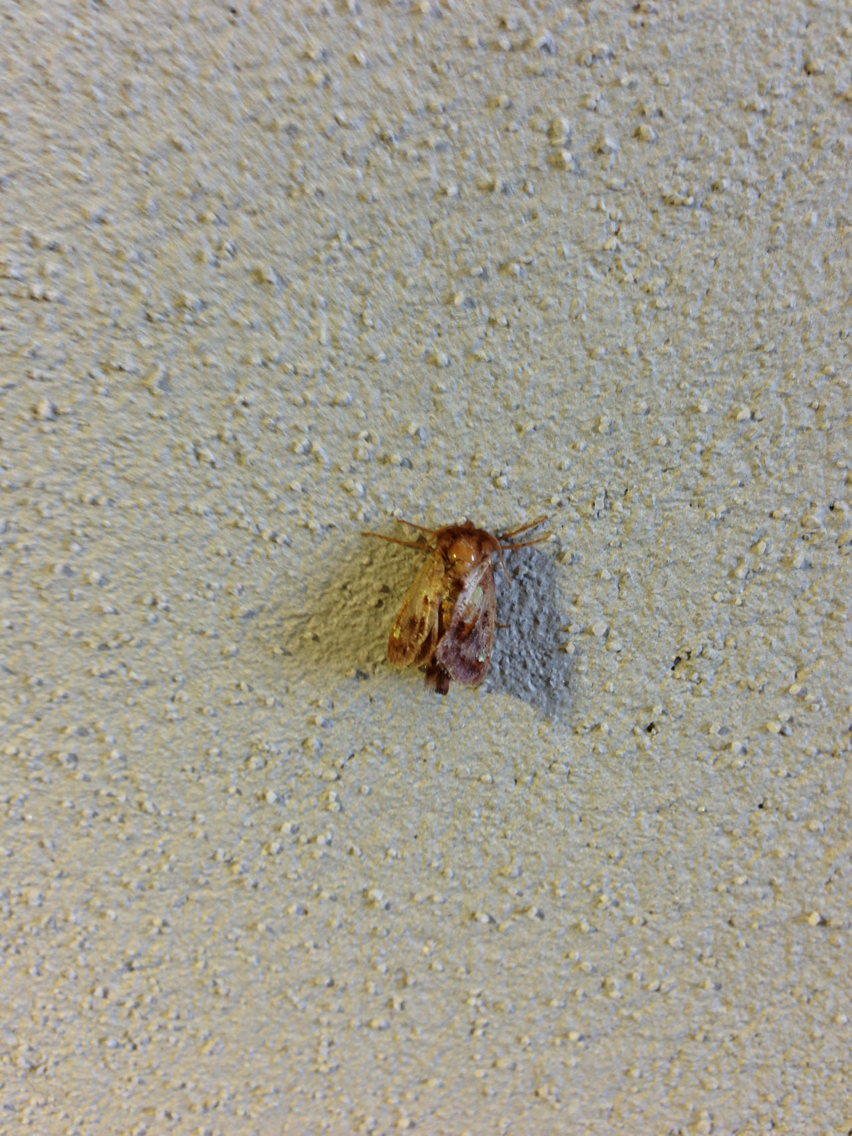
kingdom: Animalia
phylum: Arthropoda
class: Insecta
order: Lepidoptera
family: Limacodidae
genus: Euclea
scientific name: Euclea delphinii
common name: Spiny oak-slug moth
